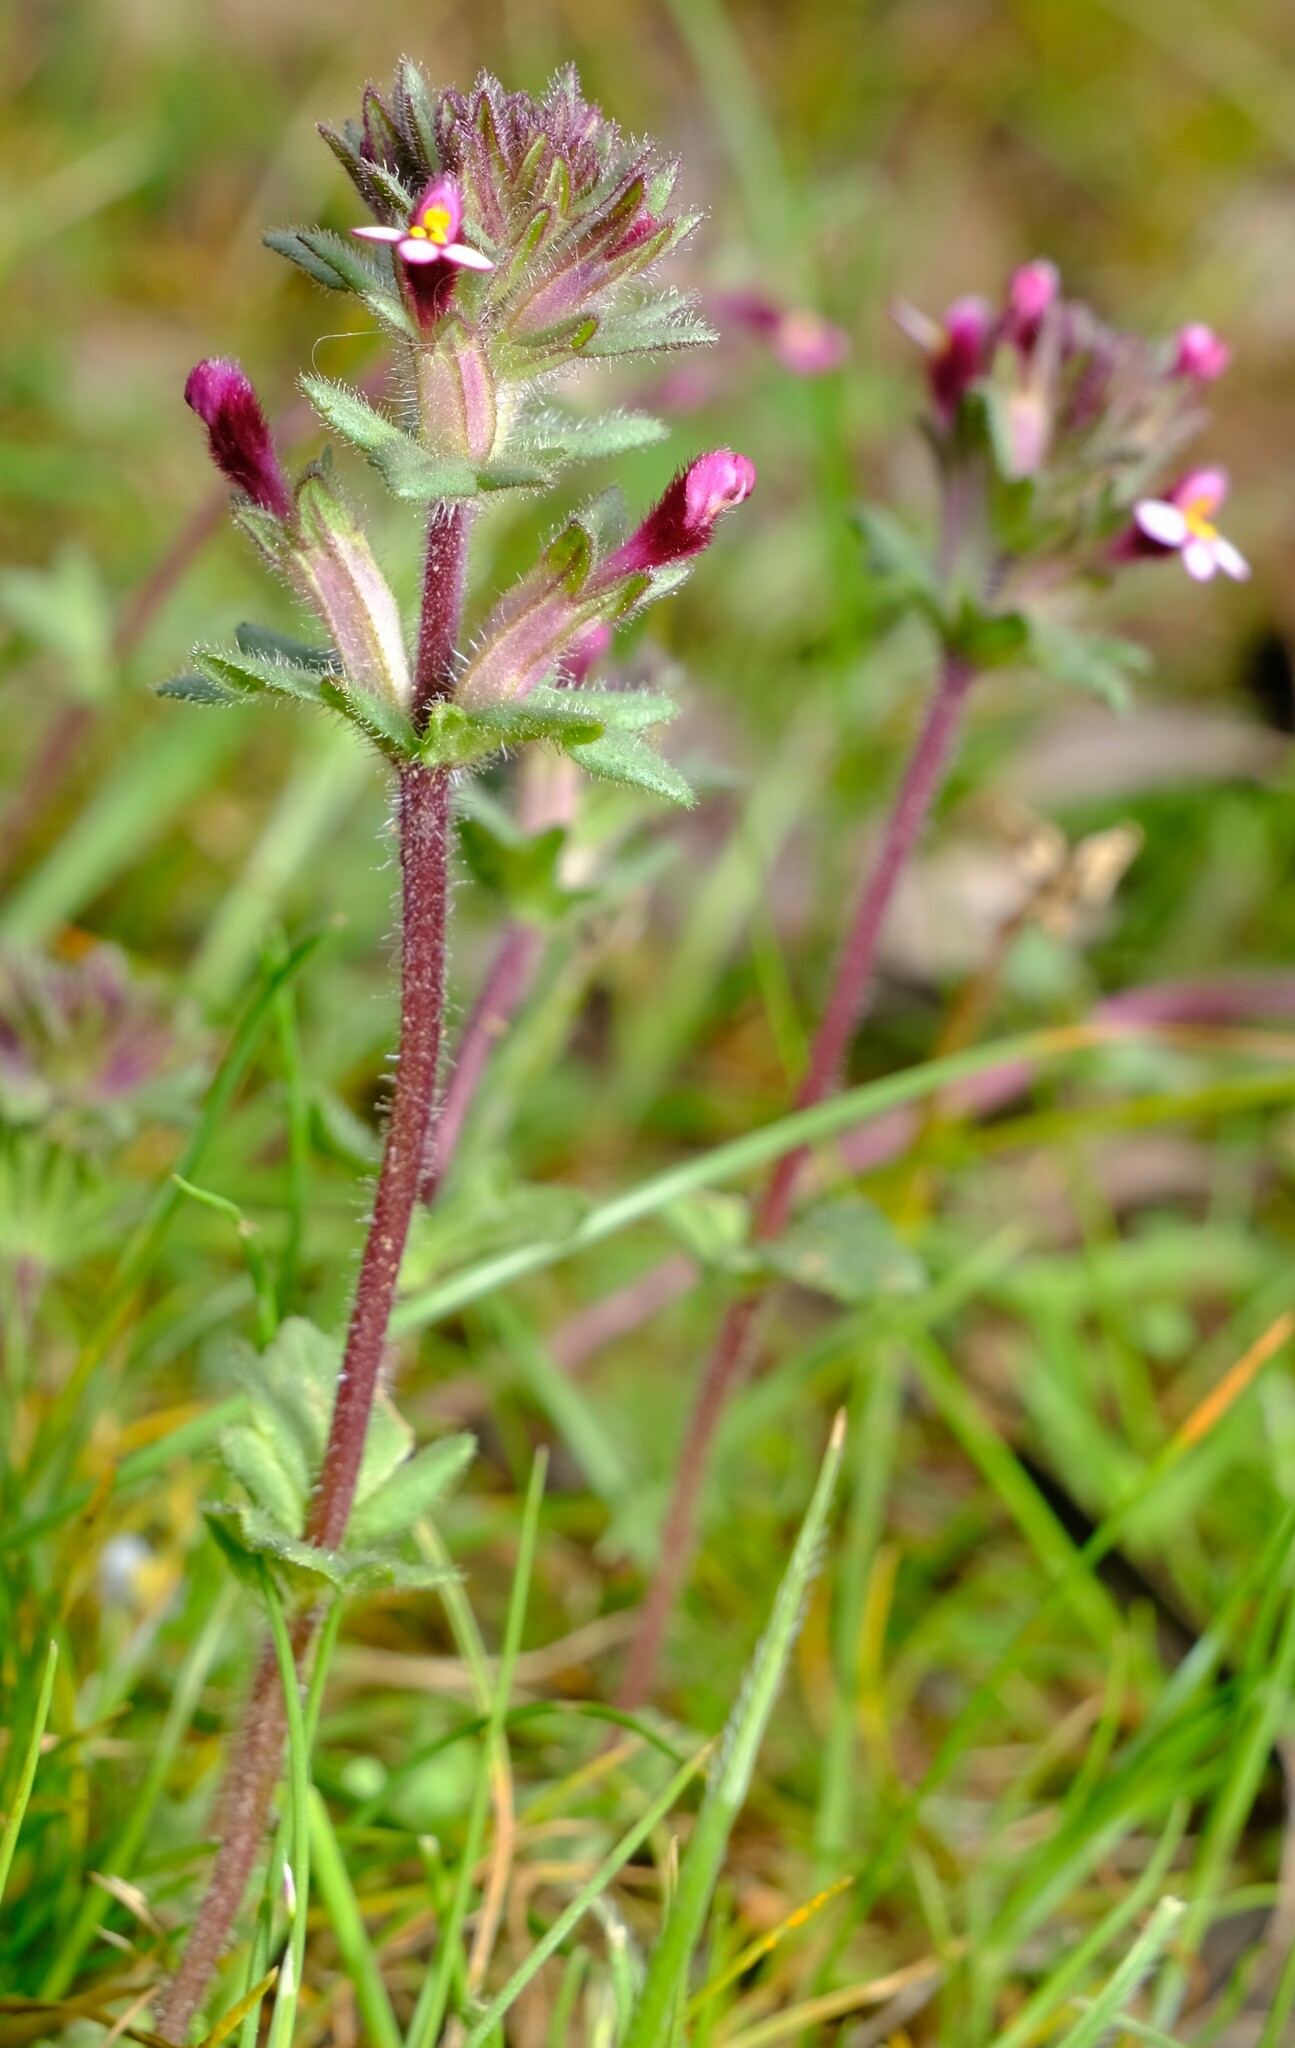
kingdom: Plantae
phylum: Tracheophyta
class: Magnoliopsida
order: Lamiales
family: Orobanchaceae
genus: Parentucellia
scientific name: Parentucellia latifolia
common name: Broadleaf glandweed
